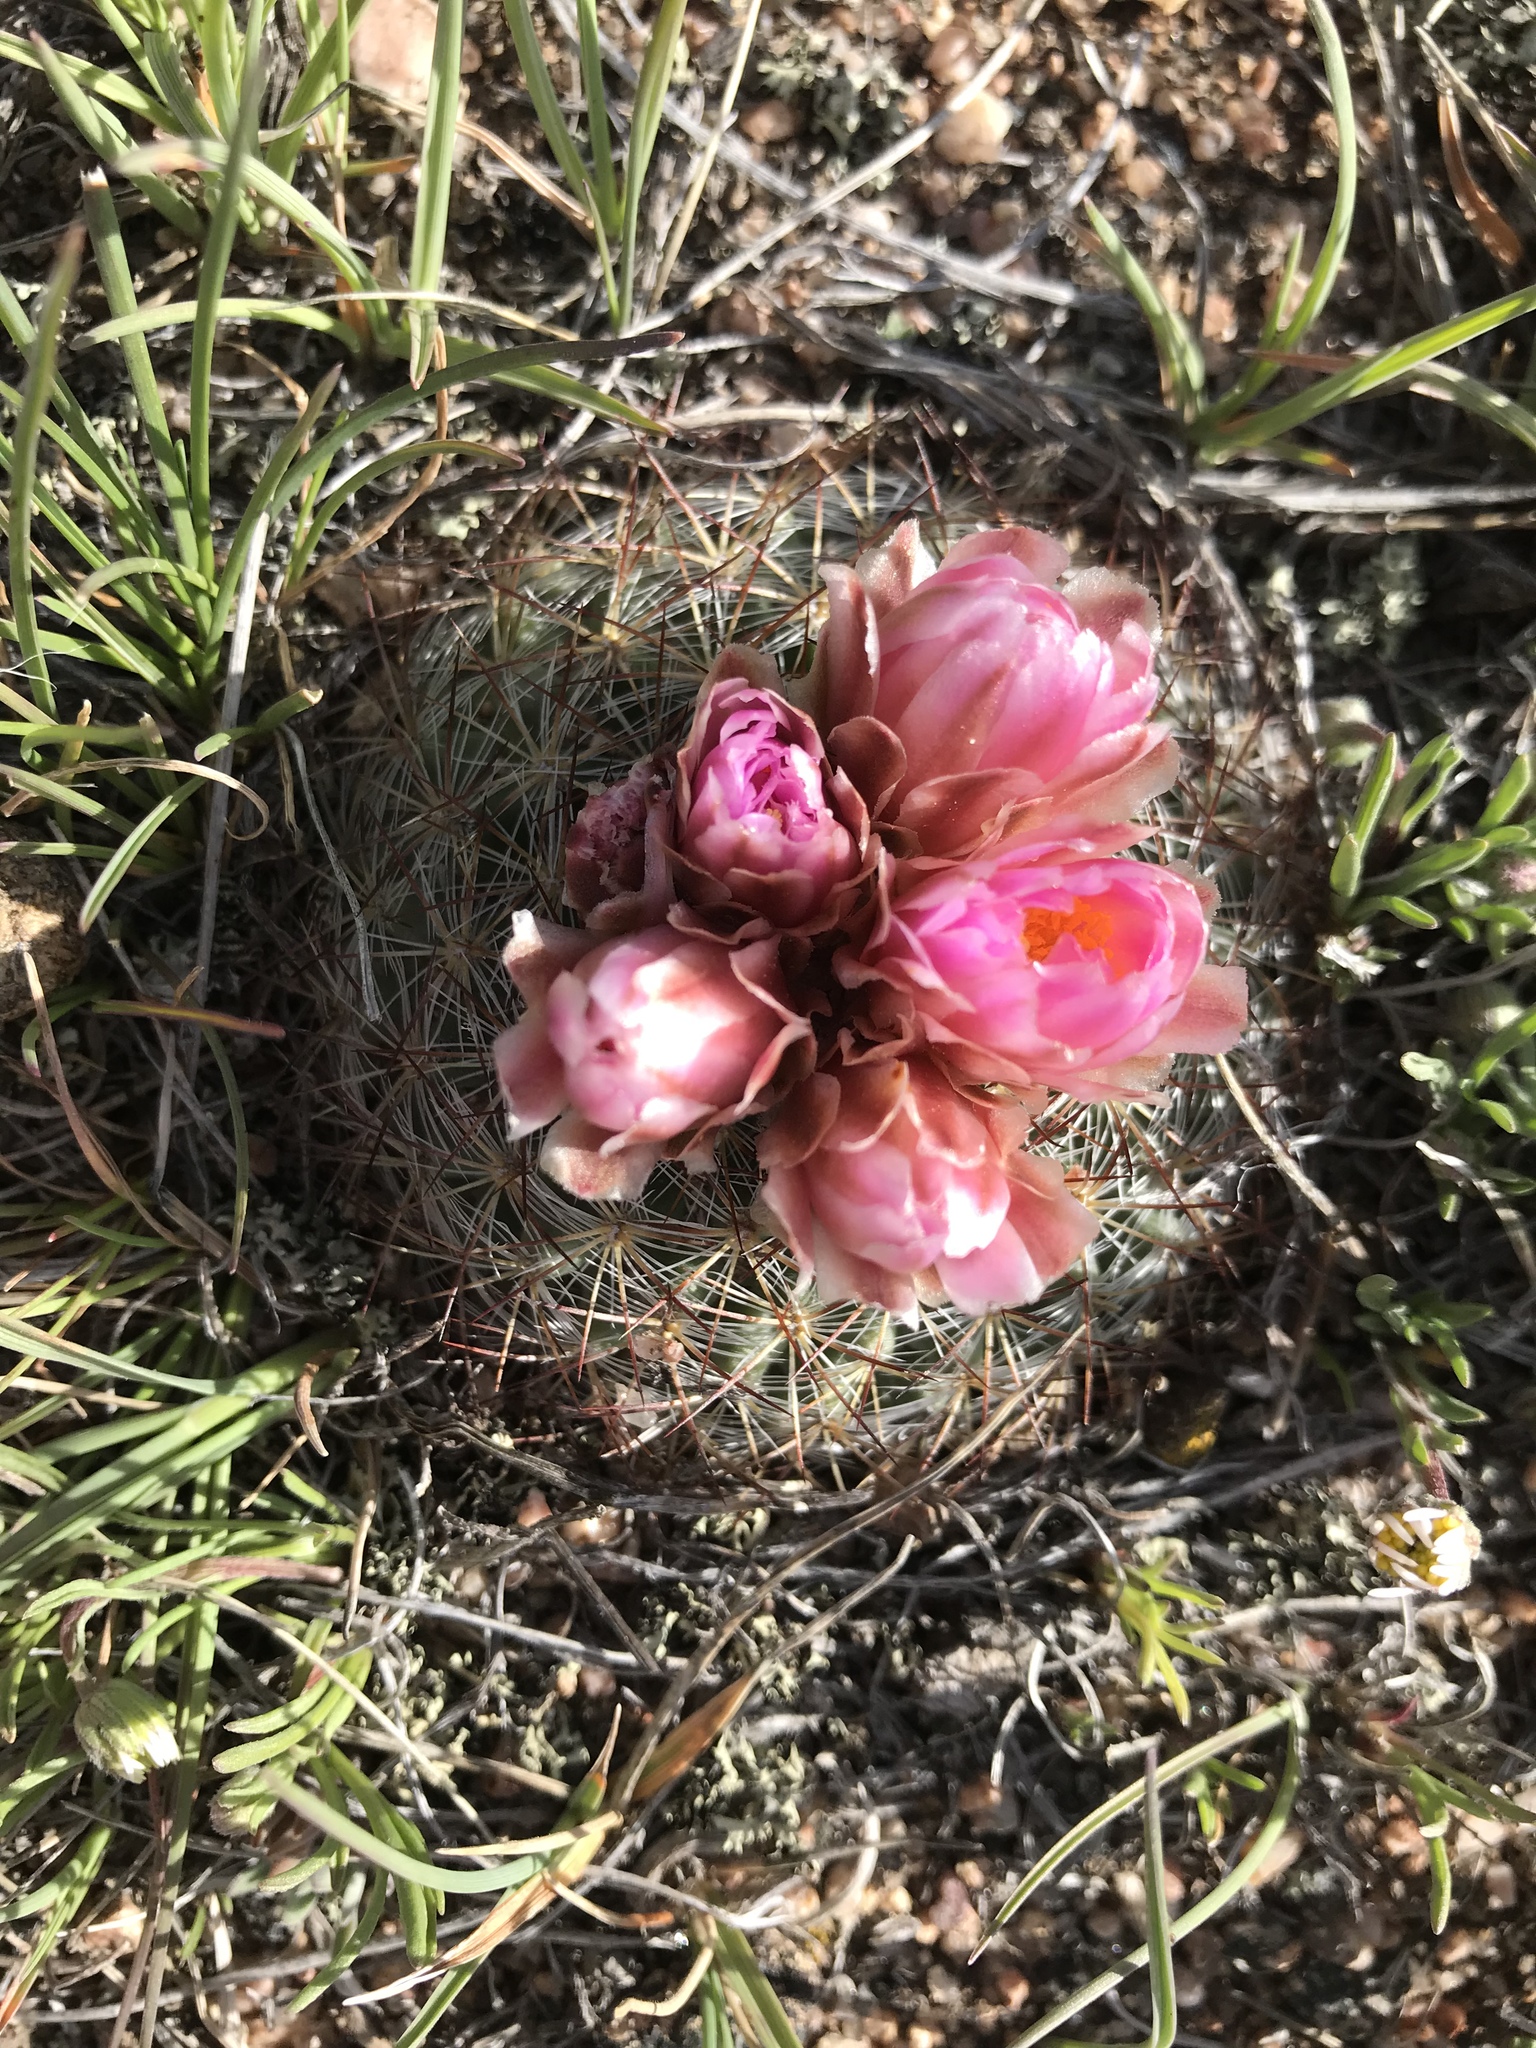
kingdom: Plantae
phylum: Tracheophyta
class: Magnoliopsida
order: Caryophyllales
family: Cactaceae
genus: Pediocactus
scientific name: Pediocactus simpsonii
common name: Simpson's hedgehog cactus
